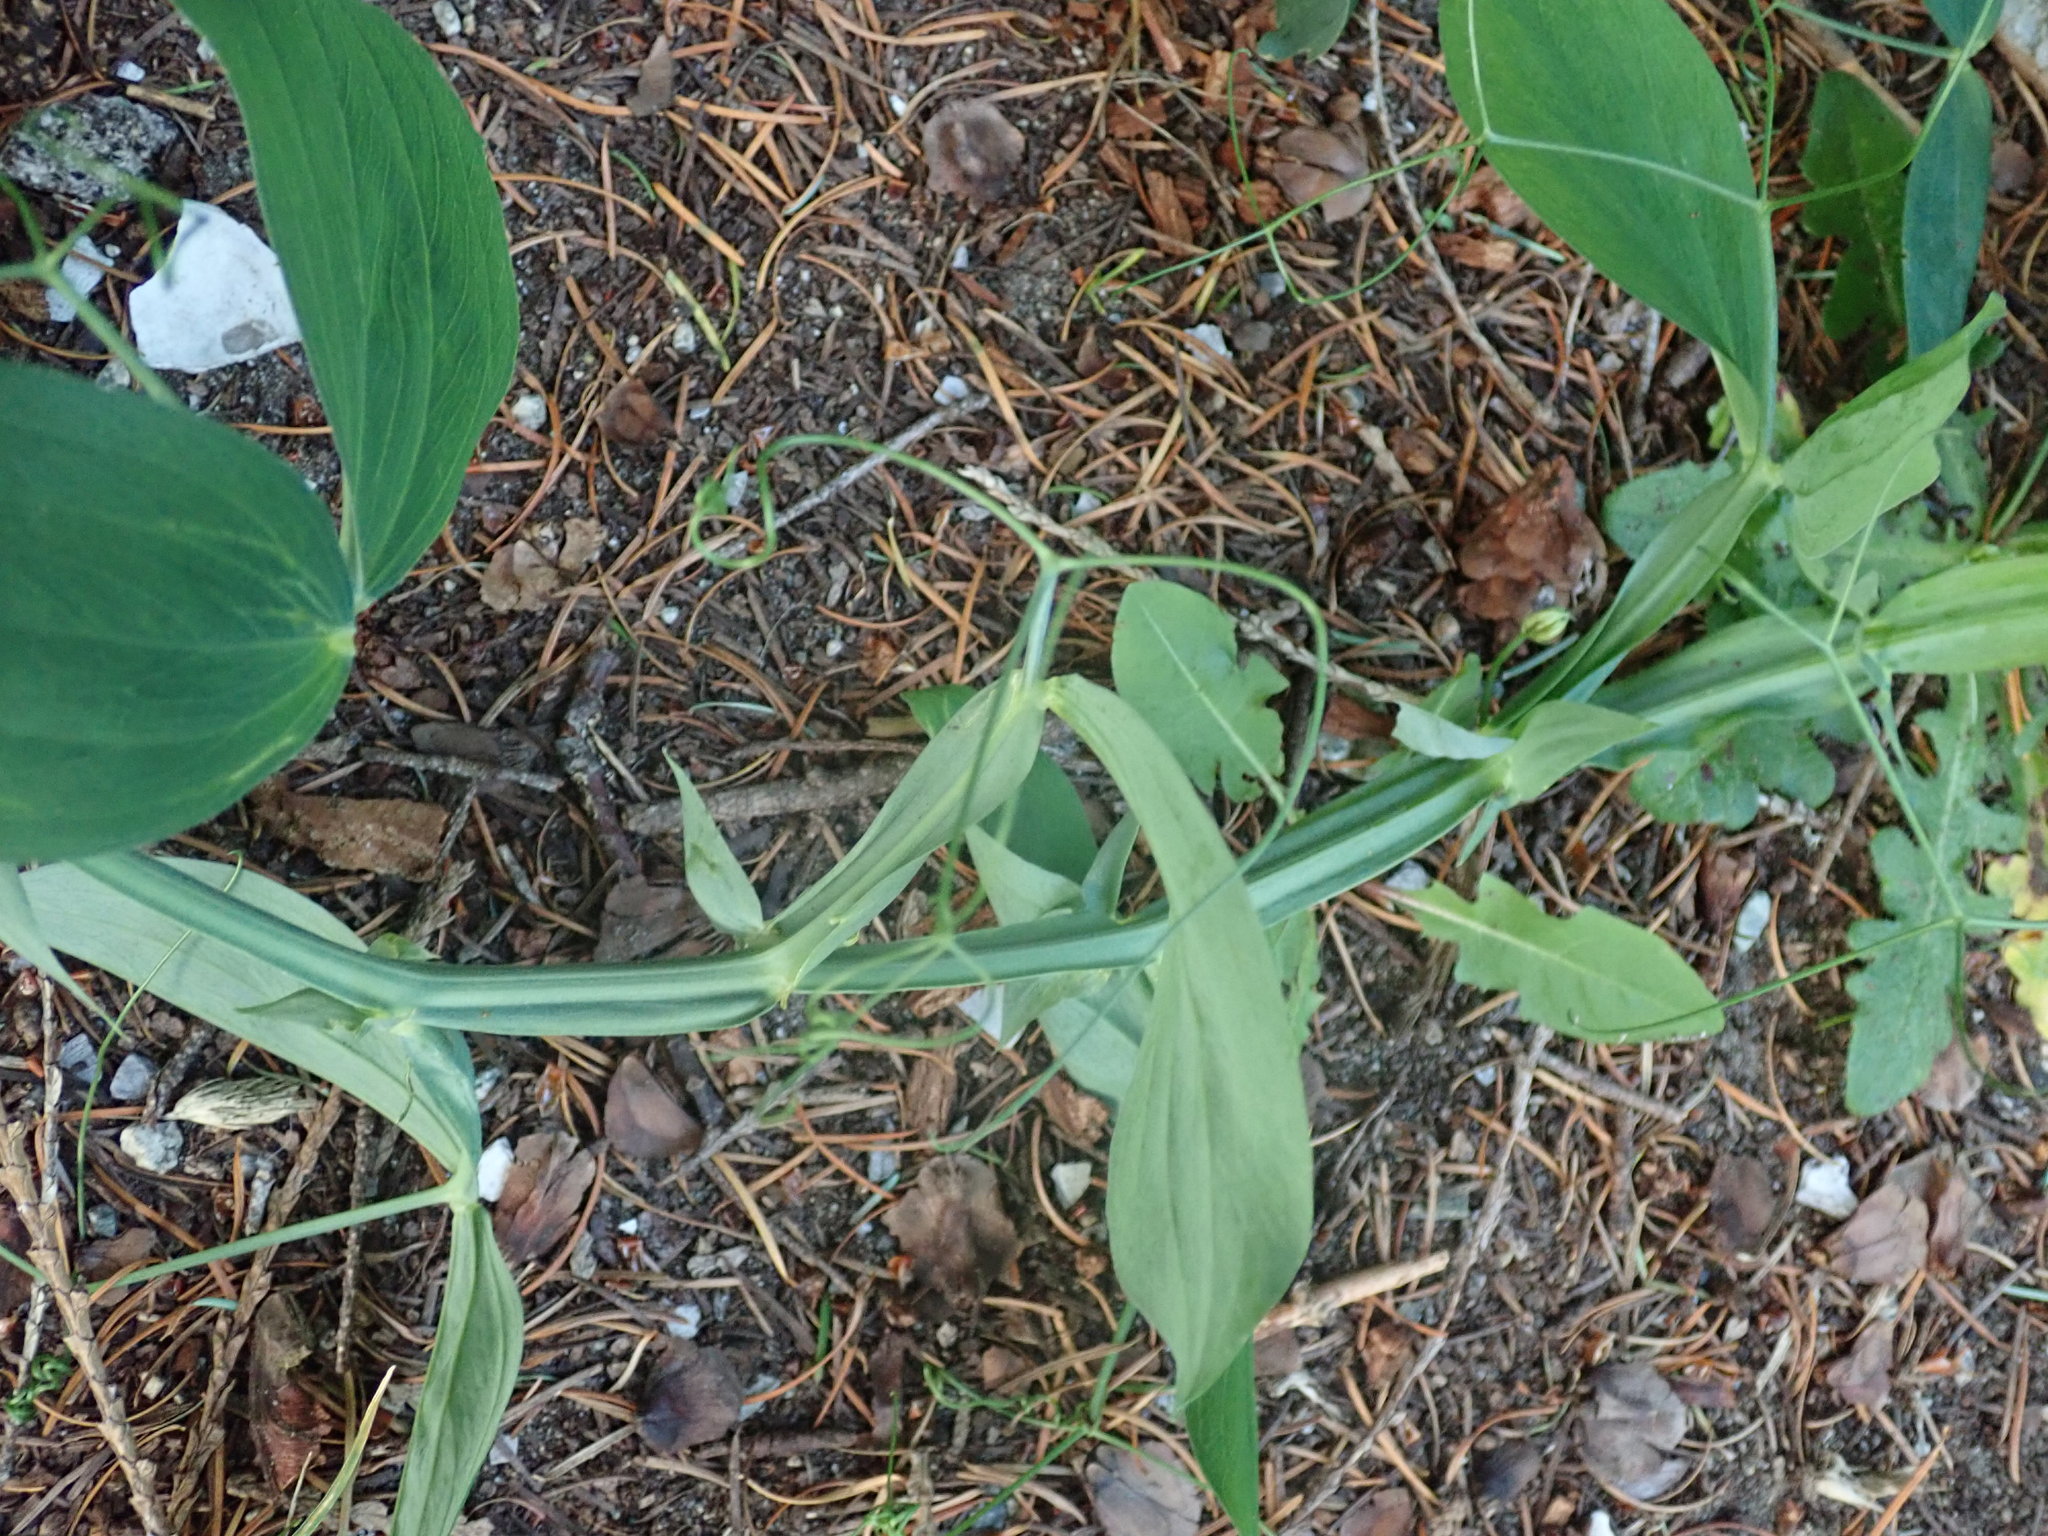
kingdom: Plantae
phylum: Tracheophyta
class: Magnoliopsida
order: Fabales
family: Fabaceae
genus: Lathyrus
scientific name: Lathyrus latifolius
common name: Perennial pea
